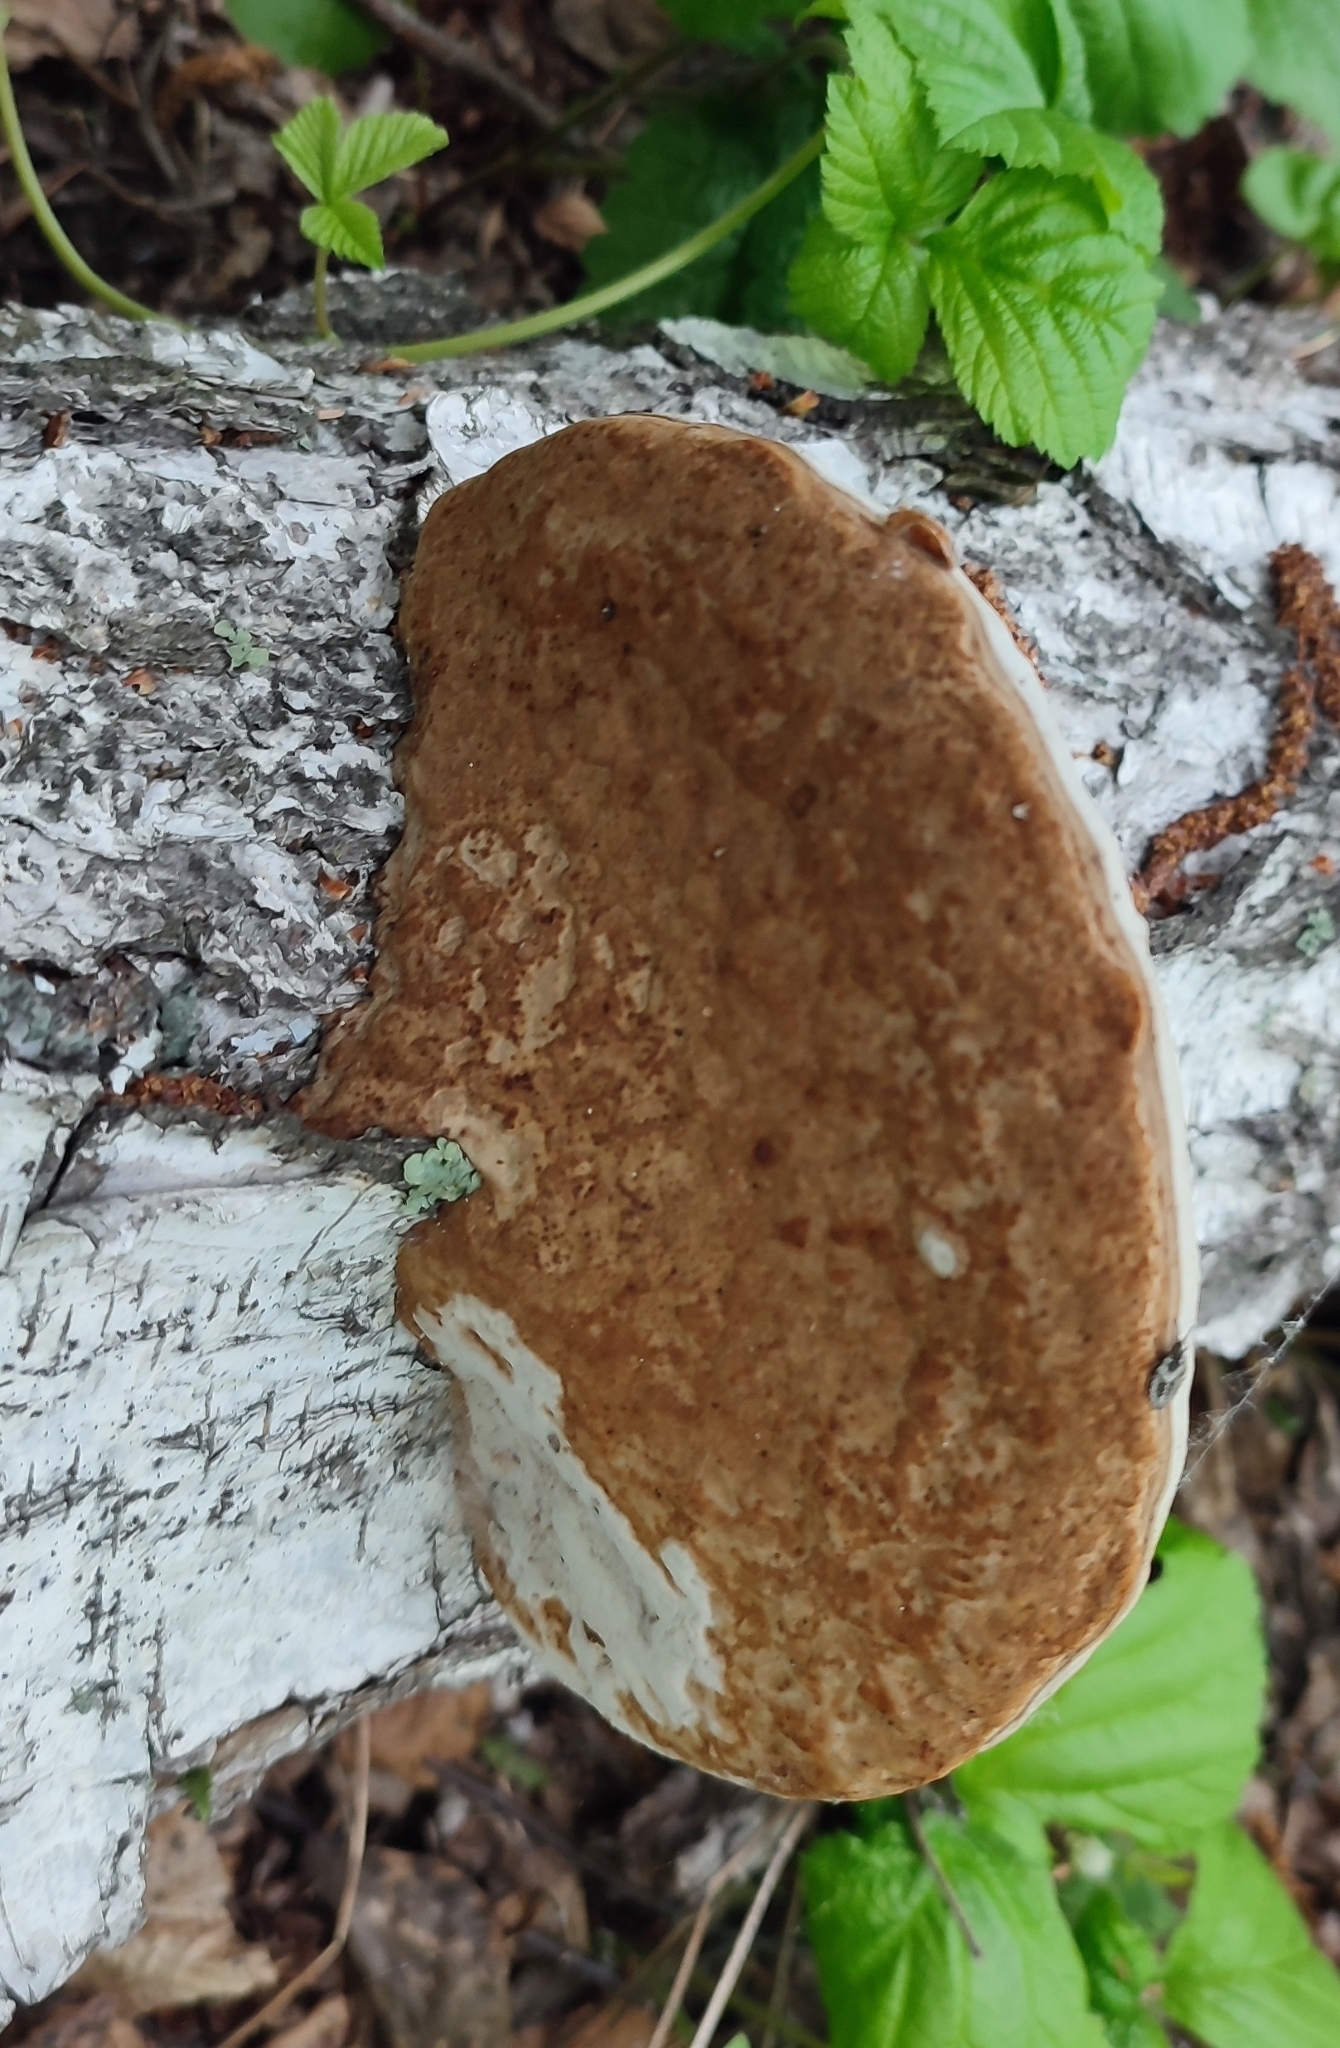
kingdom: Fungi
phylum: Basidiomycota
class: Agaricomycetes
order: Polyporales
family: Polyporaceae
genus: Fomes
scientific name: Fomes fomentarius
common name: Hoof fungus
